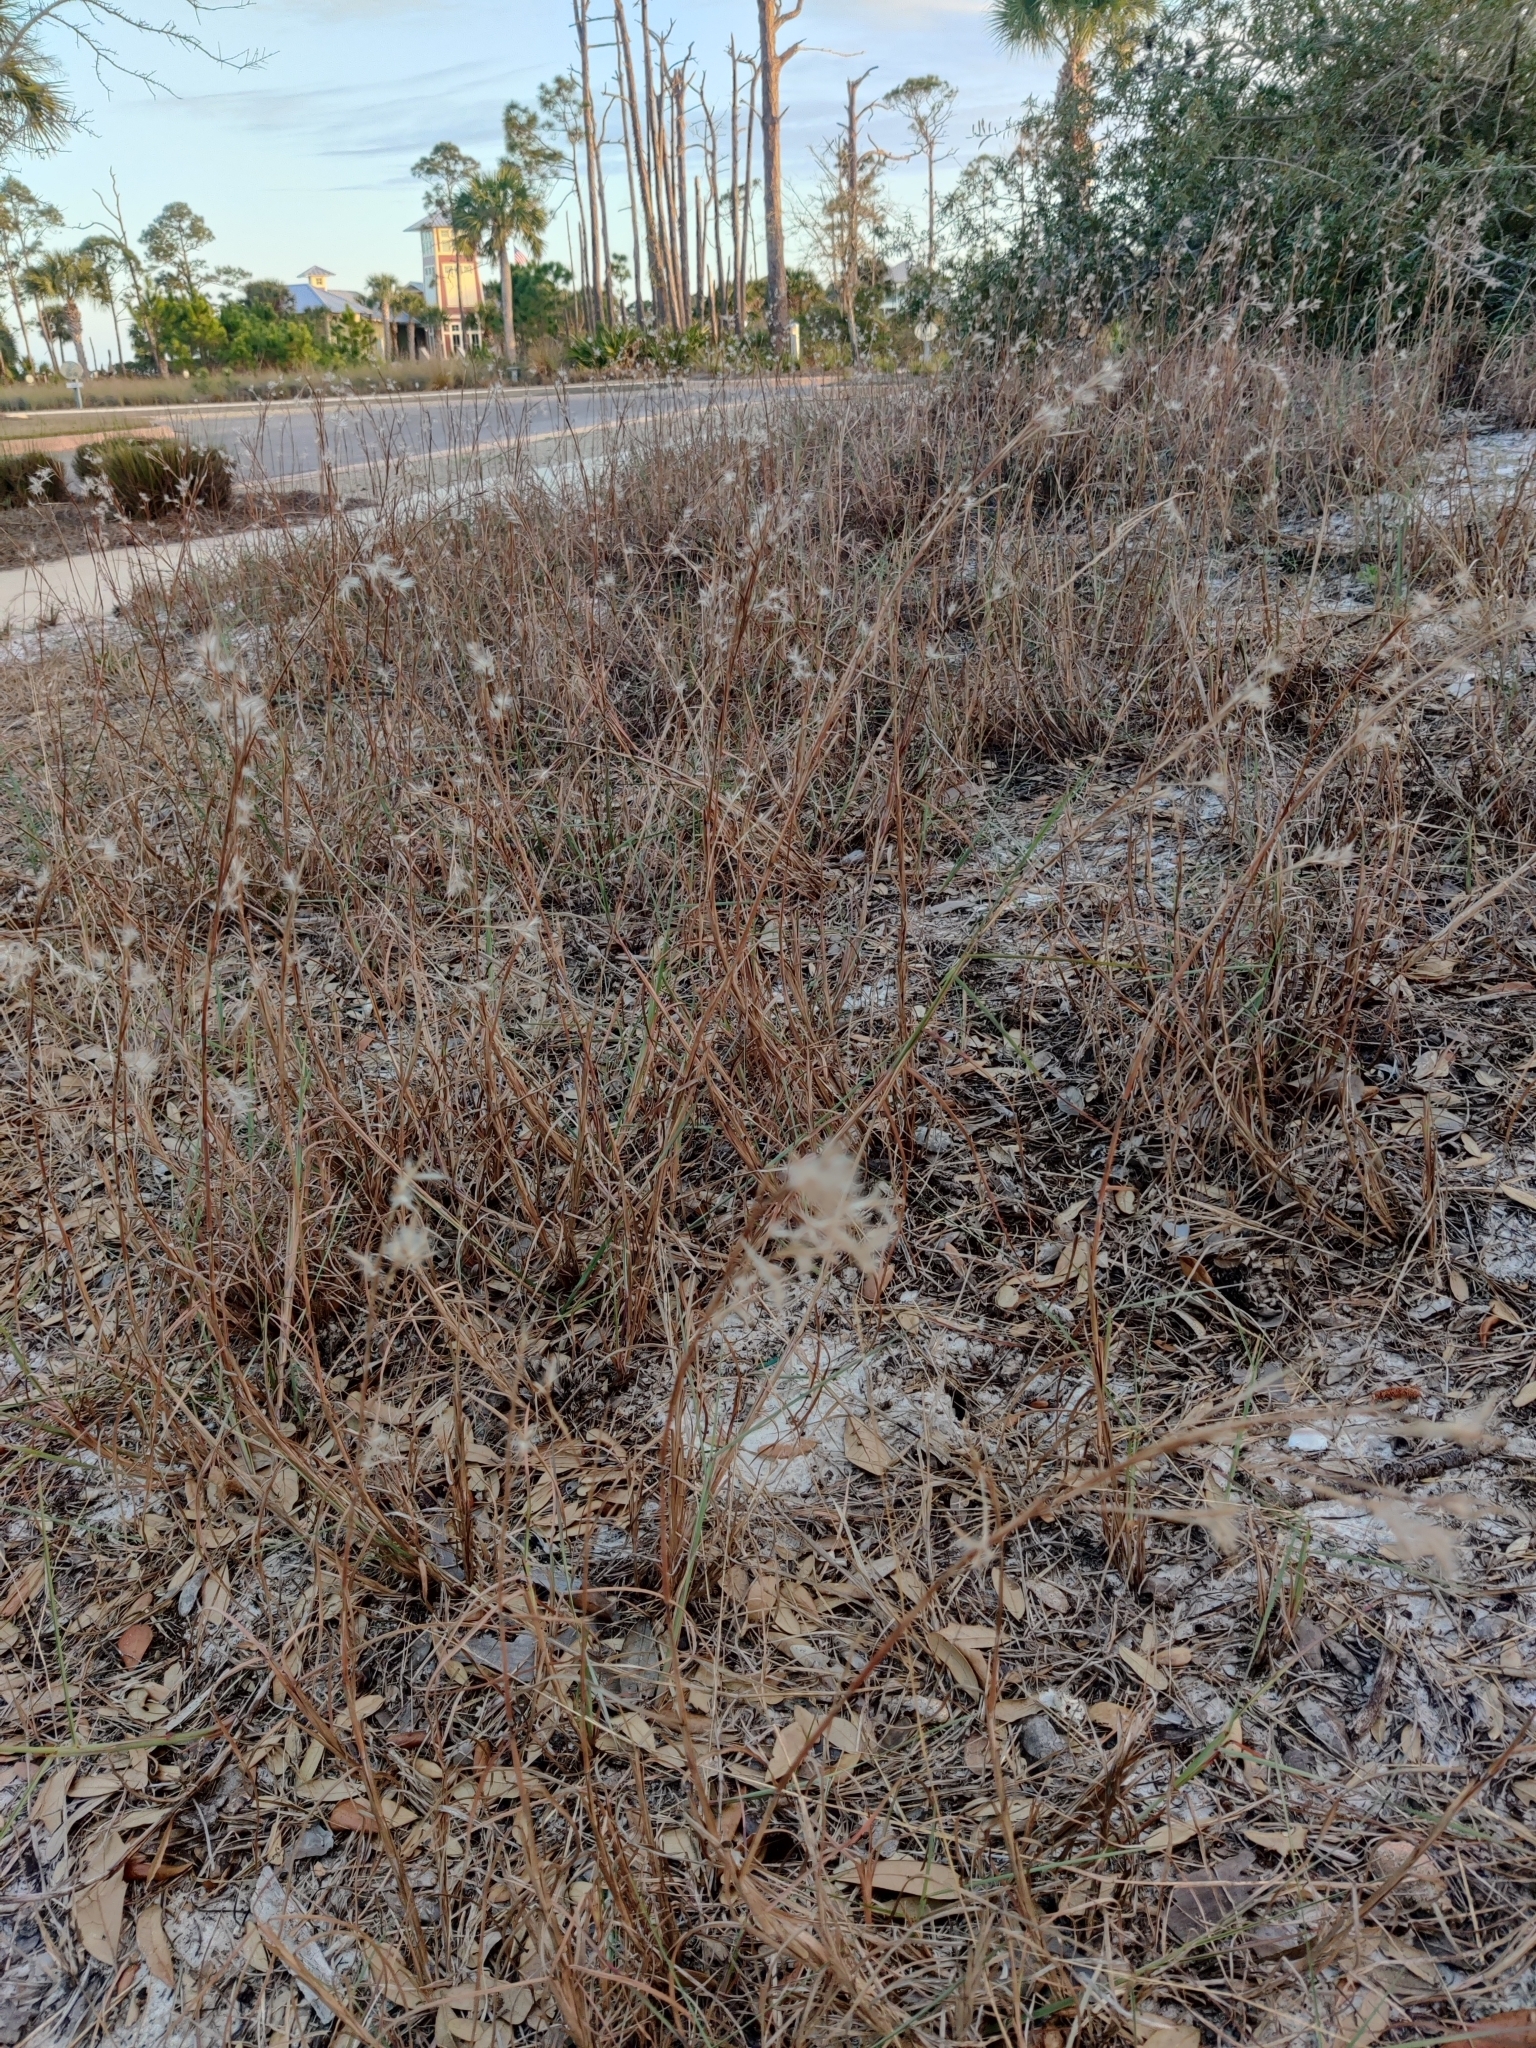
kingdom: Plantae
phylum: Tracheophyta
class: Liliopsida
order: Poales
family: Poaceae
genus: Schizachyrium
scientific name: Schizachyrium maritimum
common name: Gulf bluestem
